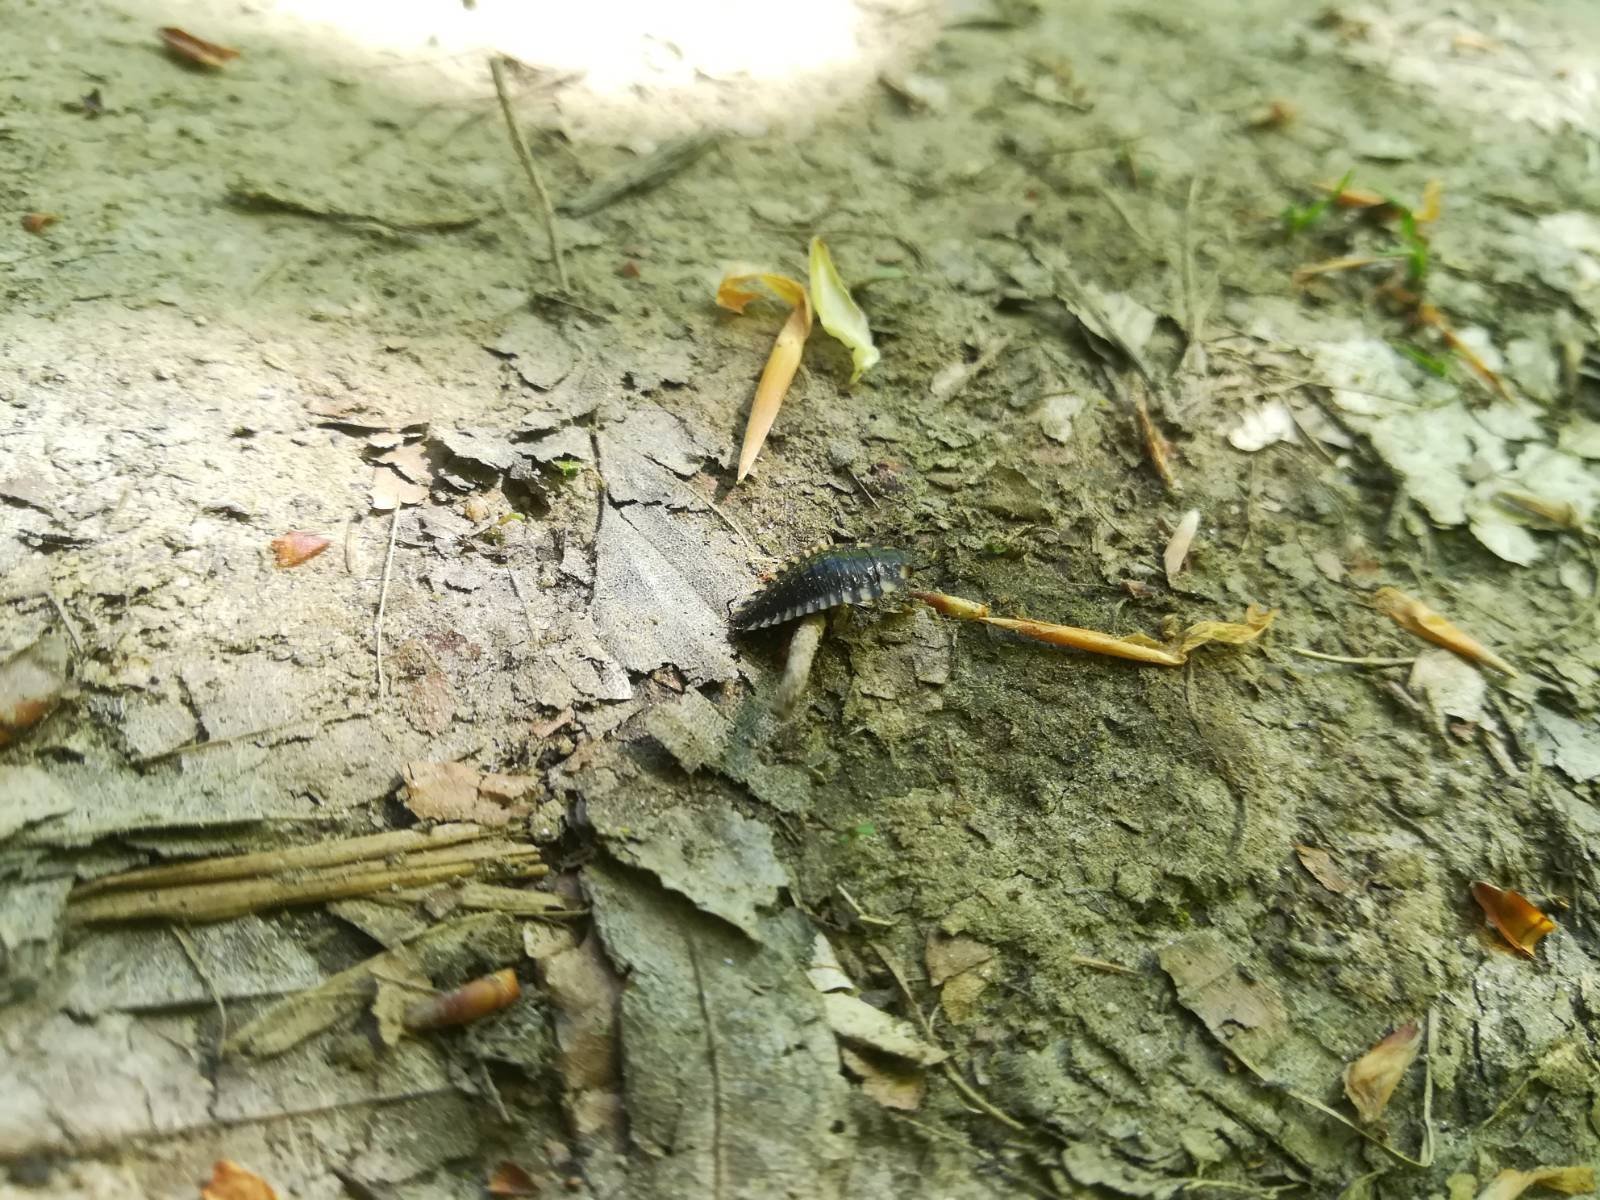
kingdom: Animalia
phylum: Arthropoda
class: Insecta
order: Coleoptera
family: Staphylinidae
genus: Oiceoptoma
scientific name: Oiceoptoma thoracicum
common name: Red-breasted carrion beetle
